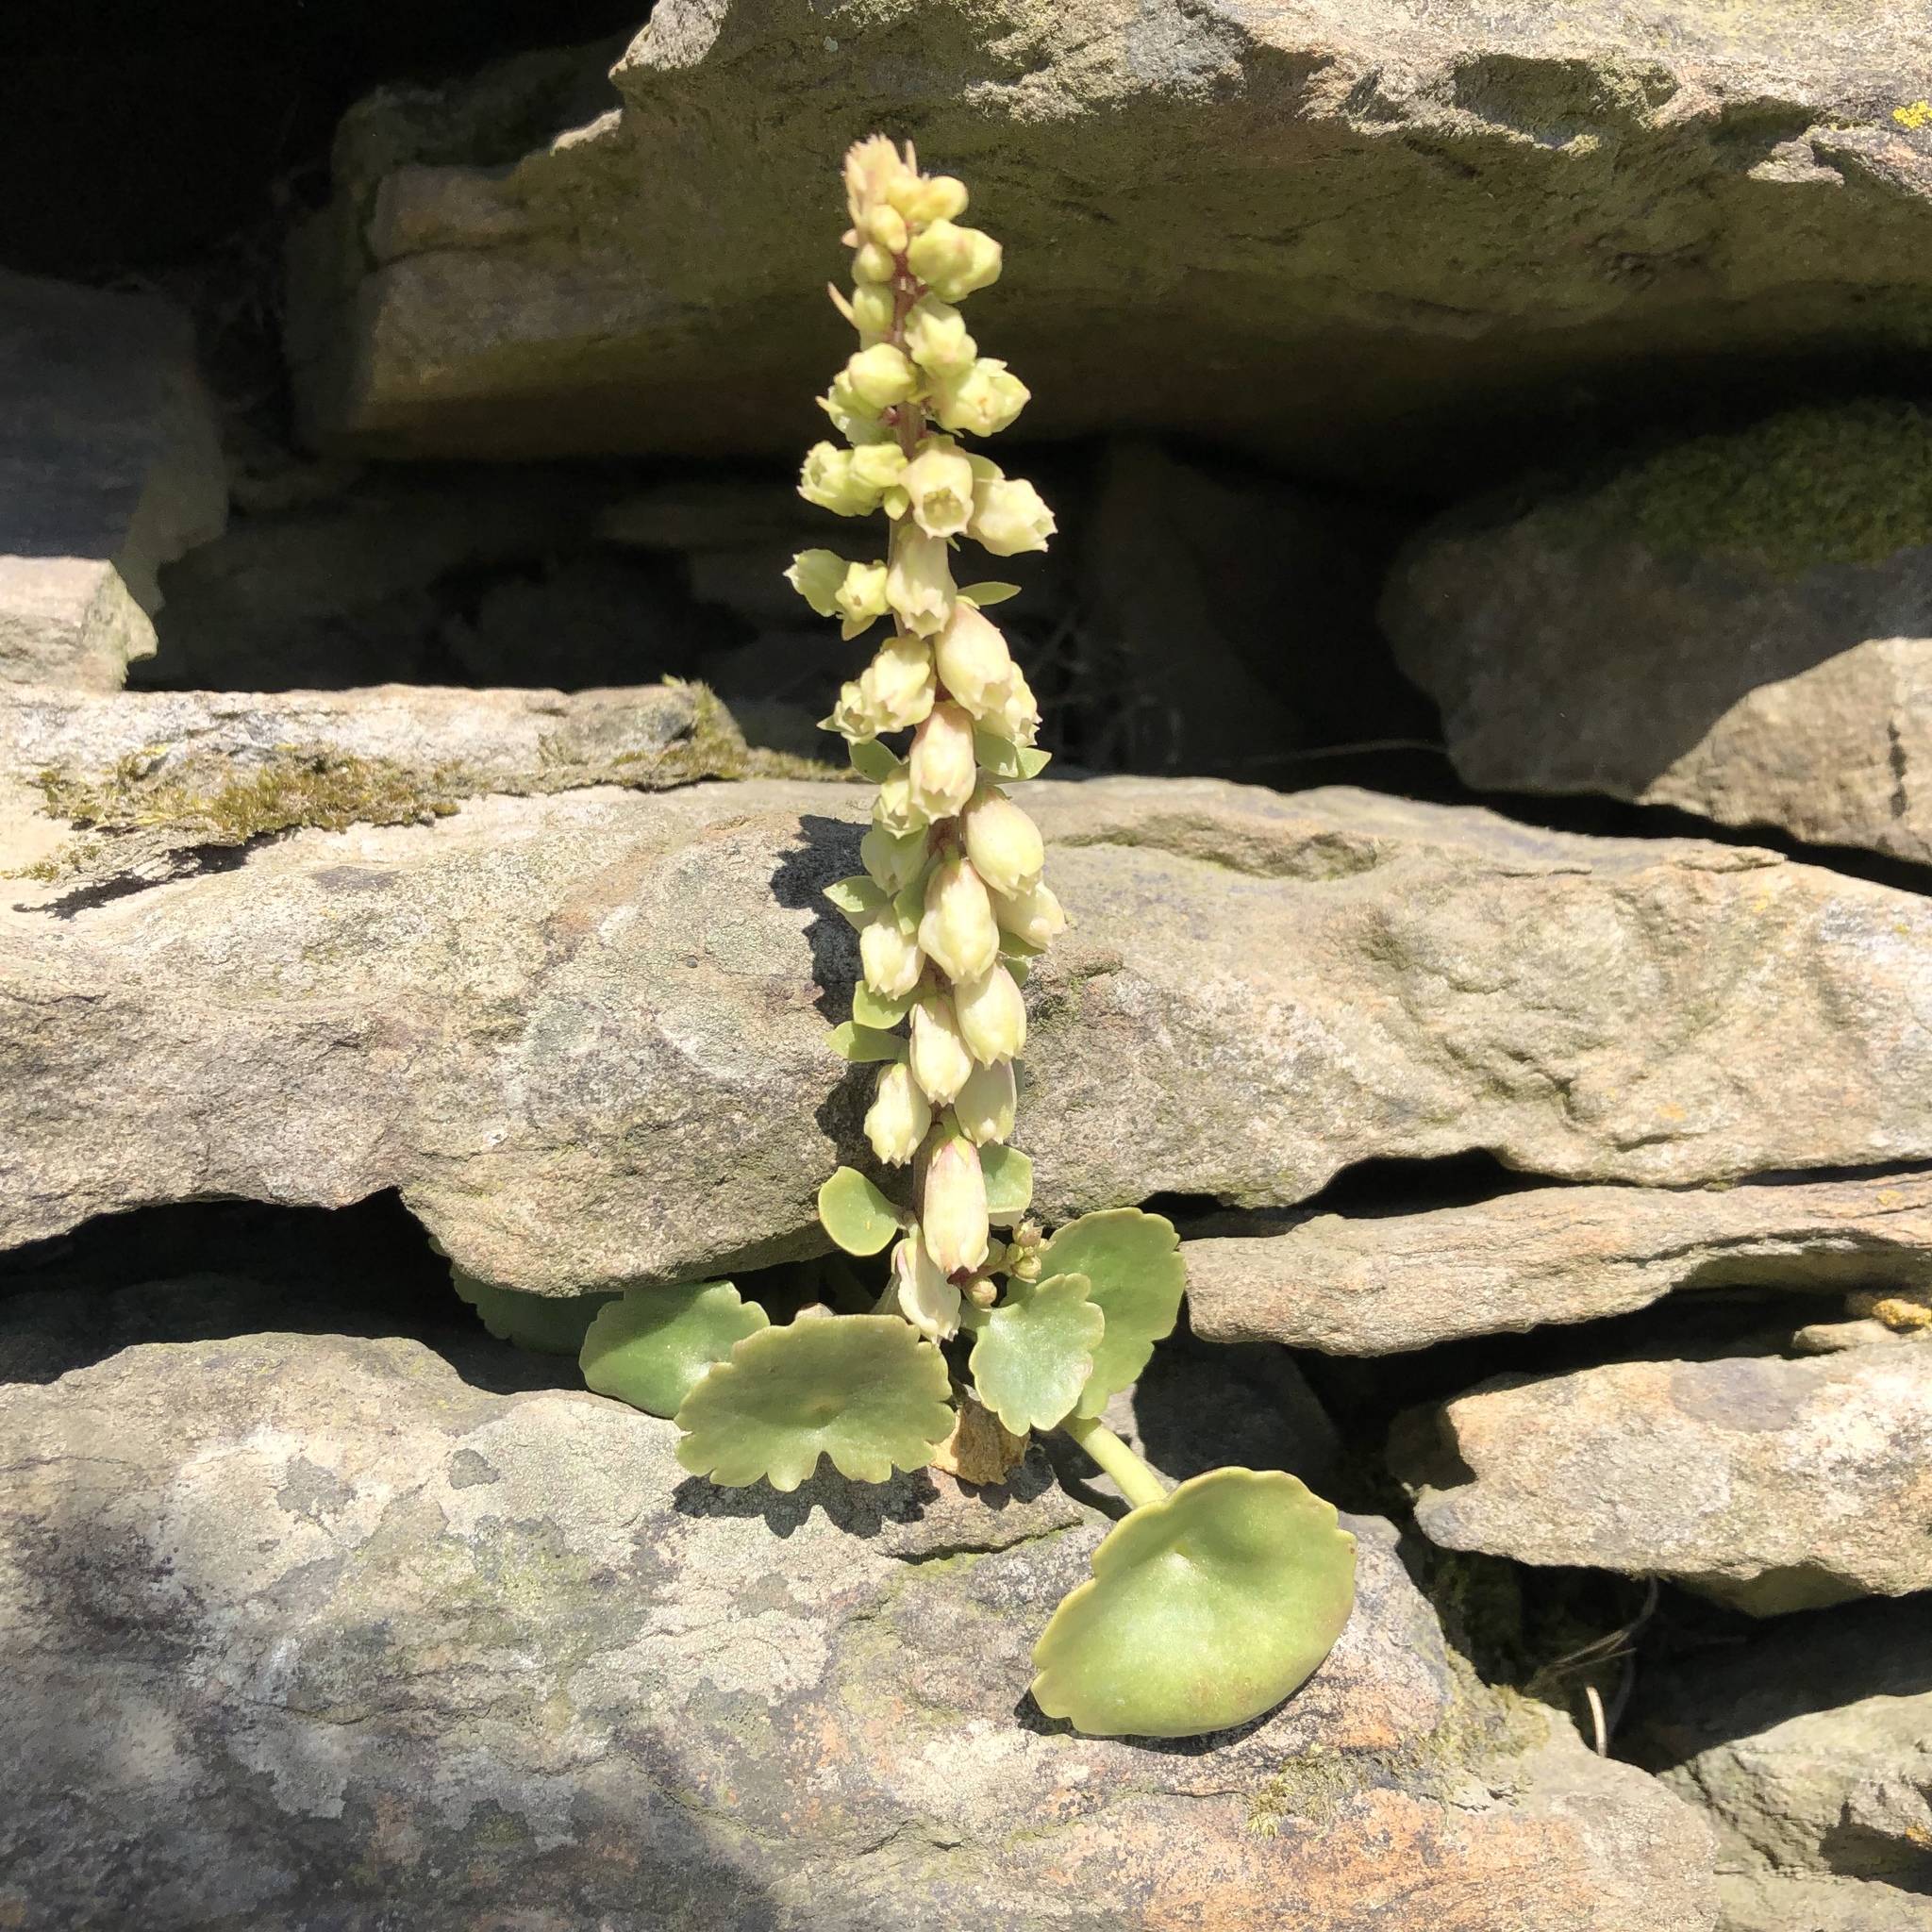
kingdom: Plantae
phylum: Tracheophyta
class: Magnoliopsida
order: Saxifragales
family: Crassulaceae
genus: Umbilicus
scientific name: Umbilicus rupestris
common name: Navelwort
